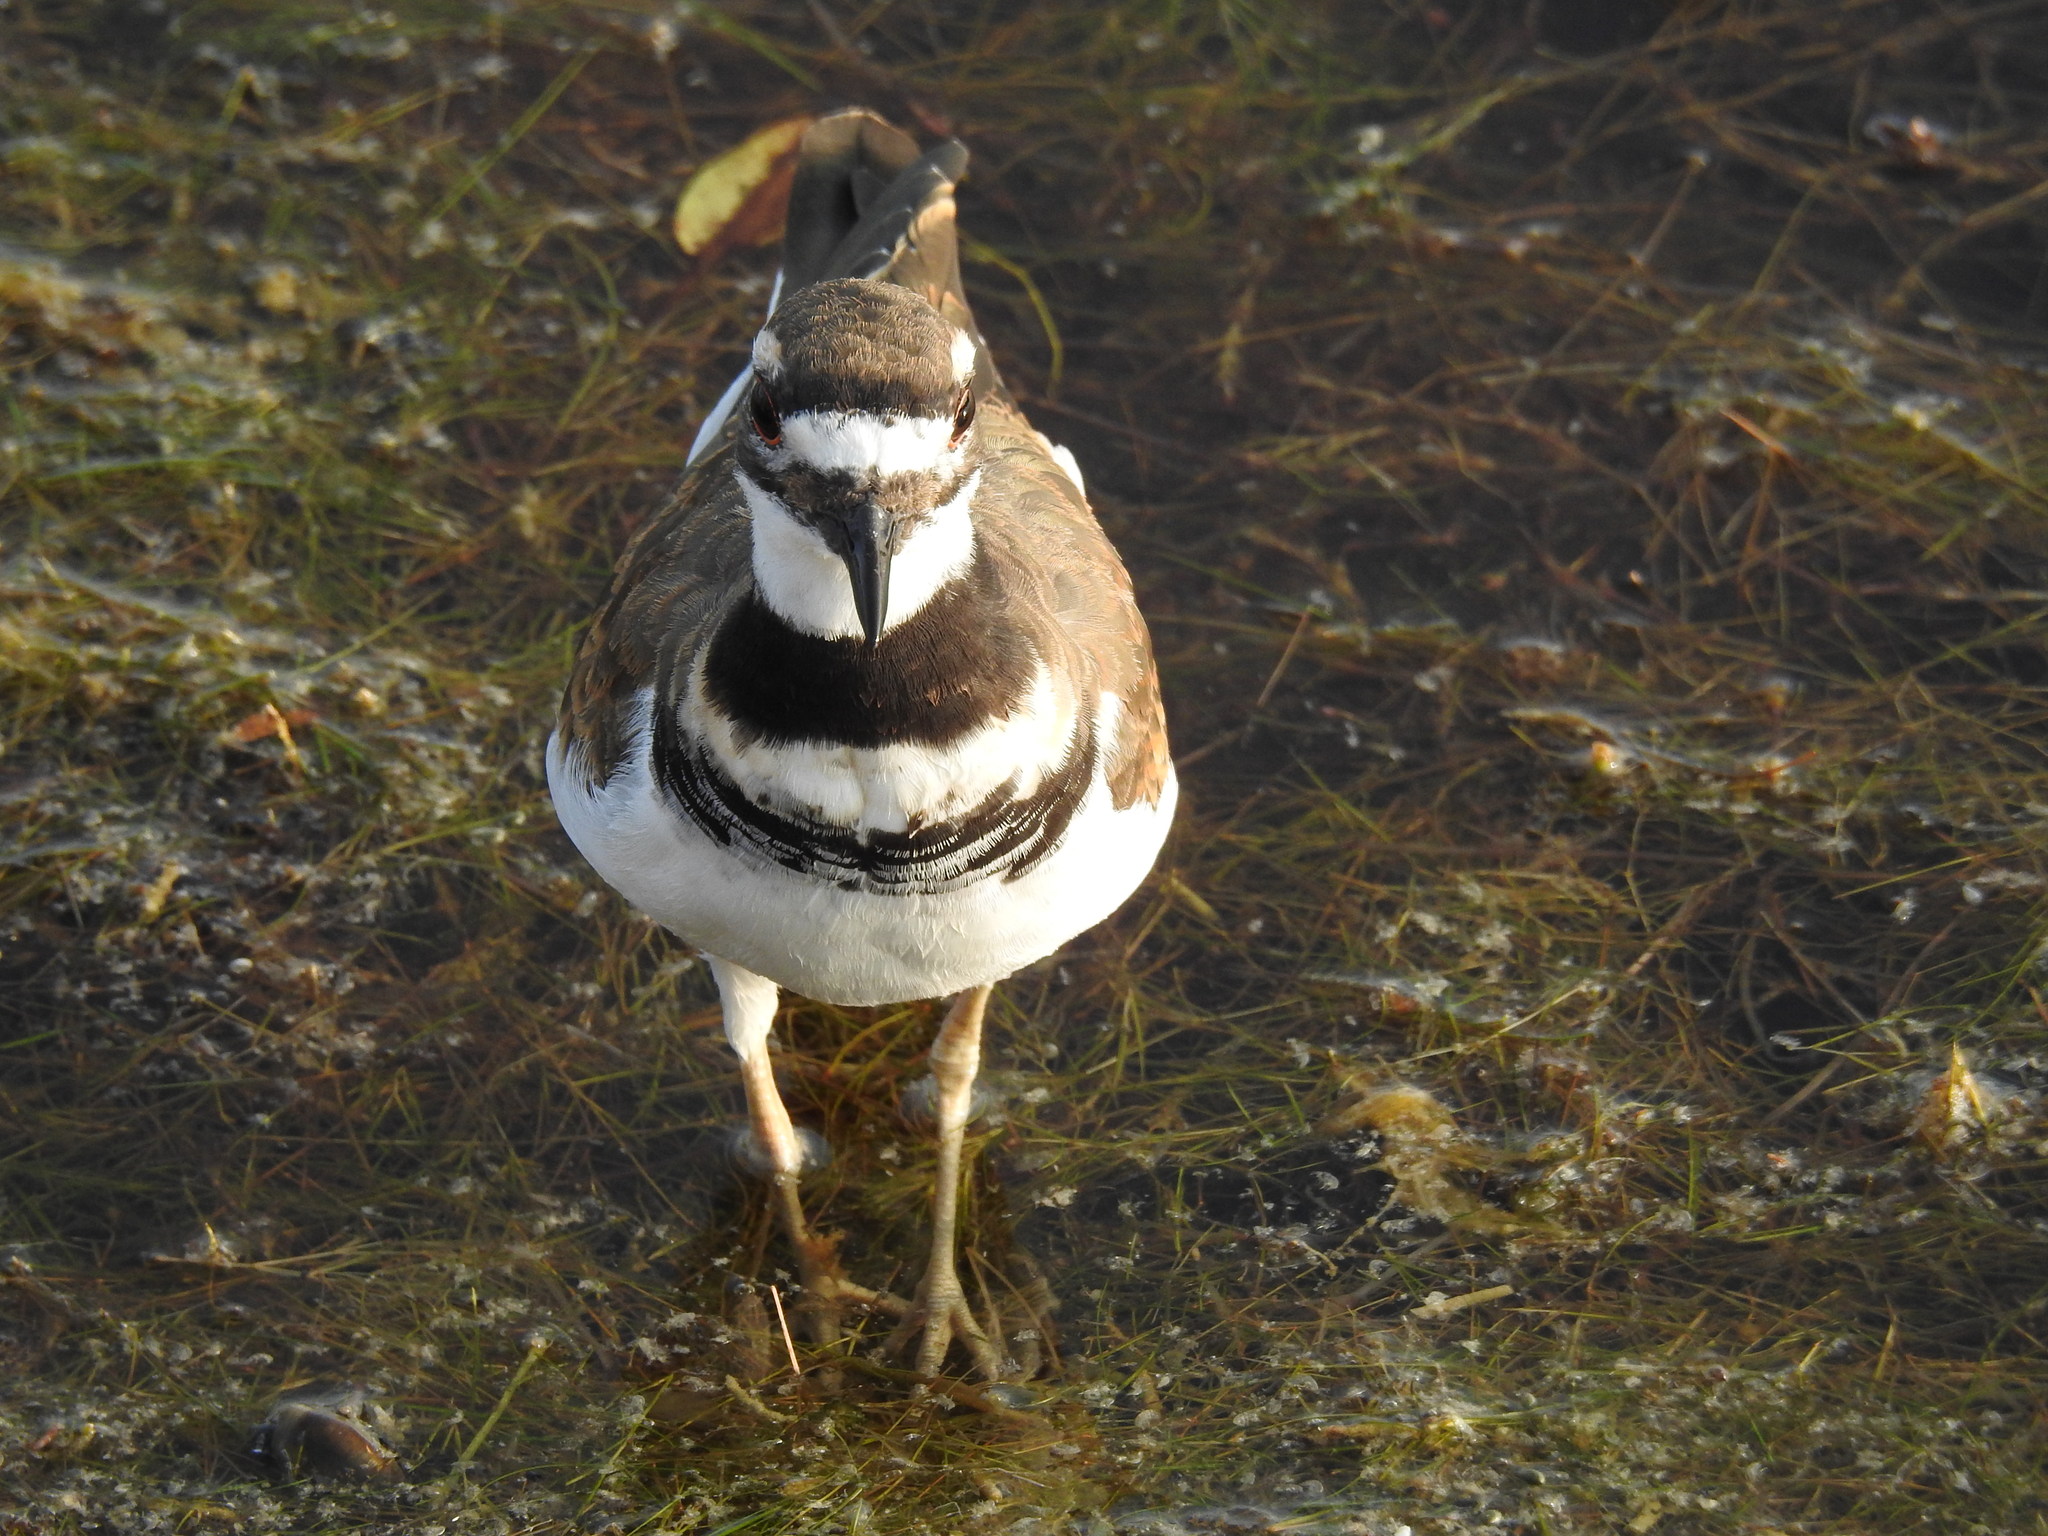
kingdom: Animalia
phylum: Chordata
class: Aves
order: Charadriiformes
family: Charadriidae
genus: Charadrius
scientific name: Charadrius vociferus
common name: Killdeer
